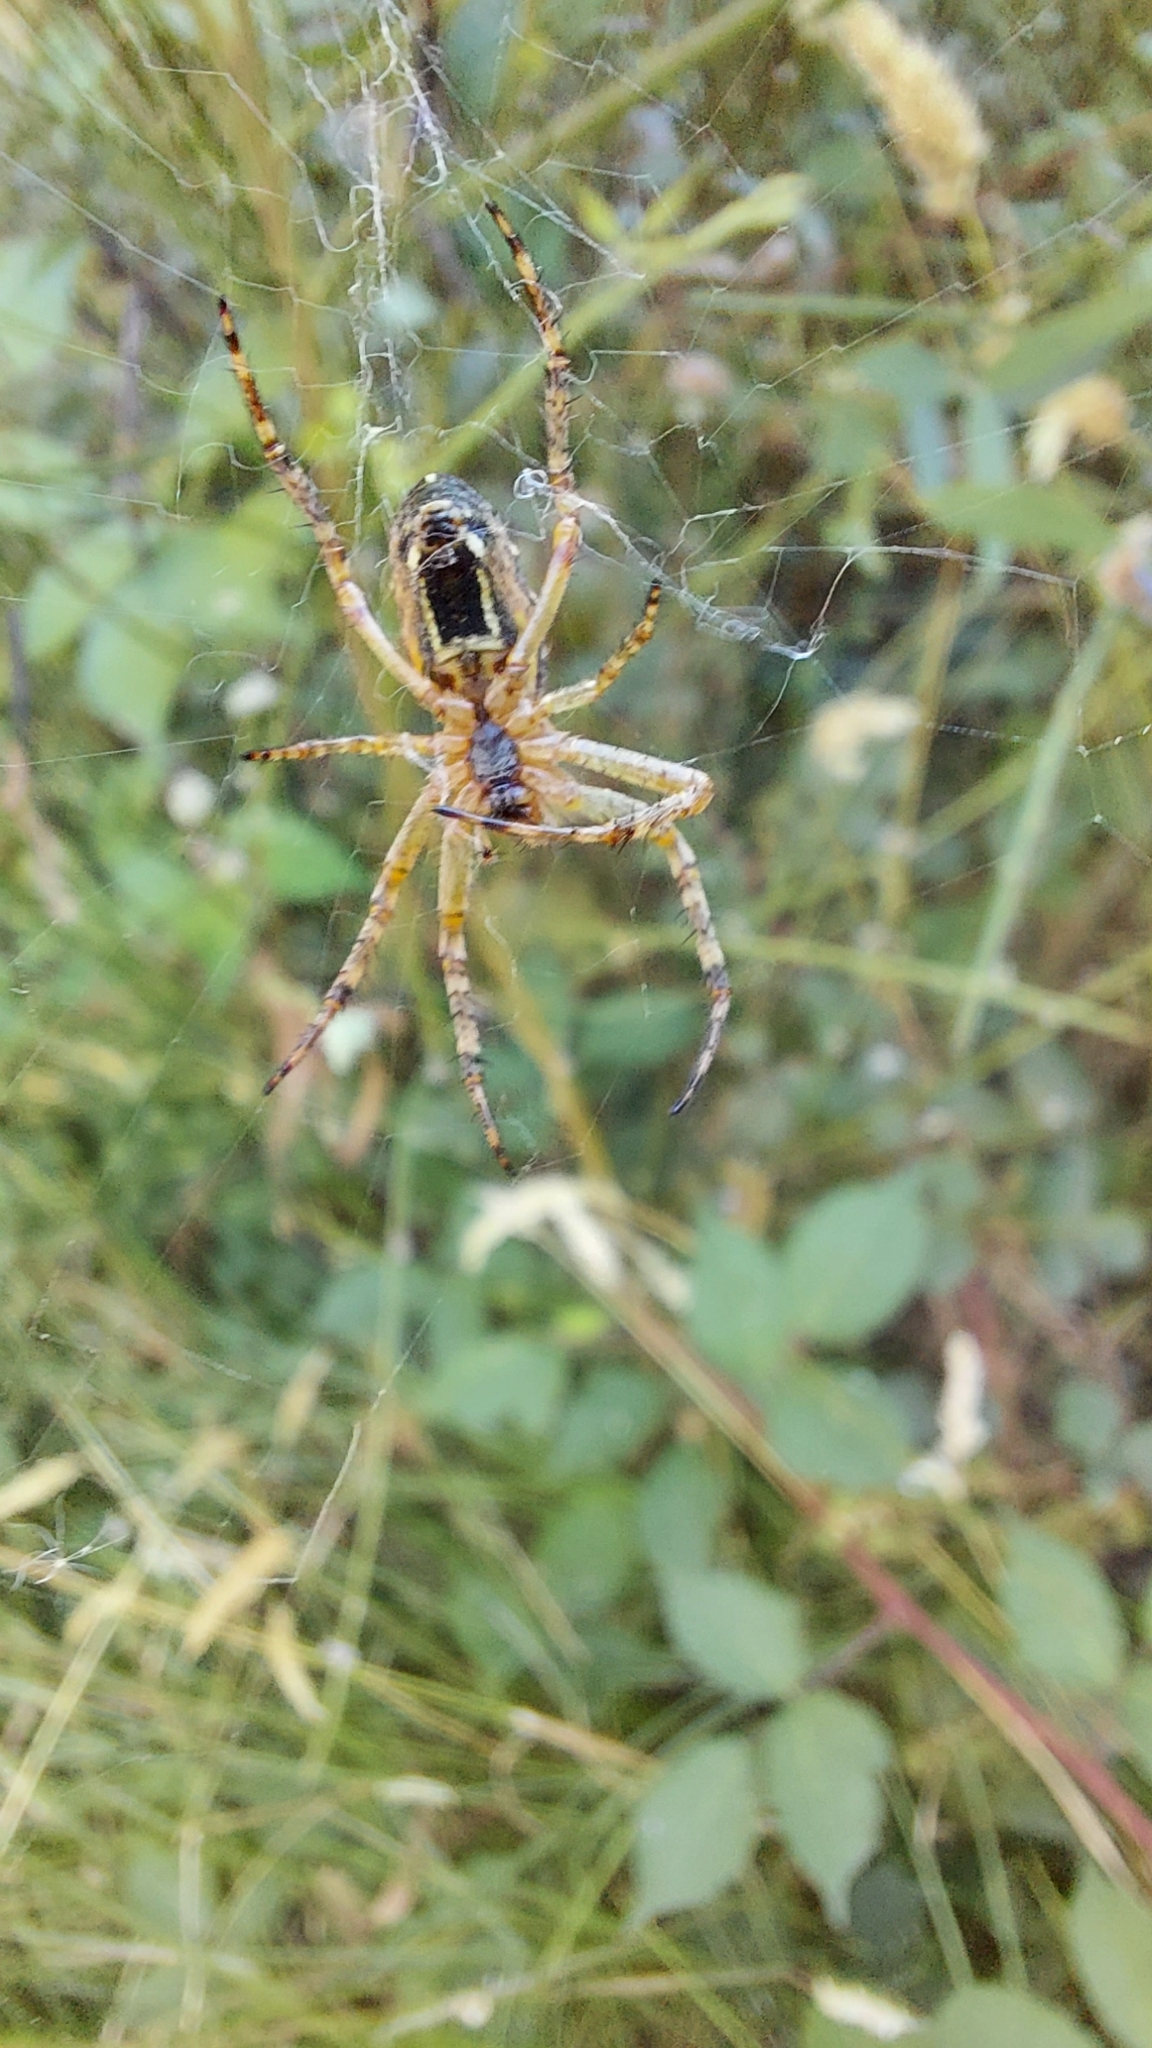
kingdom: Animalia
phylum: Arthropoda
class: Arachnida
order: Araneae
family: Araneidae
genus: Plebs
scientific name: Plebs bradleyi
